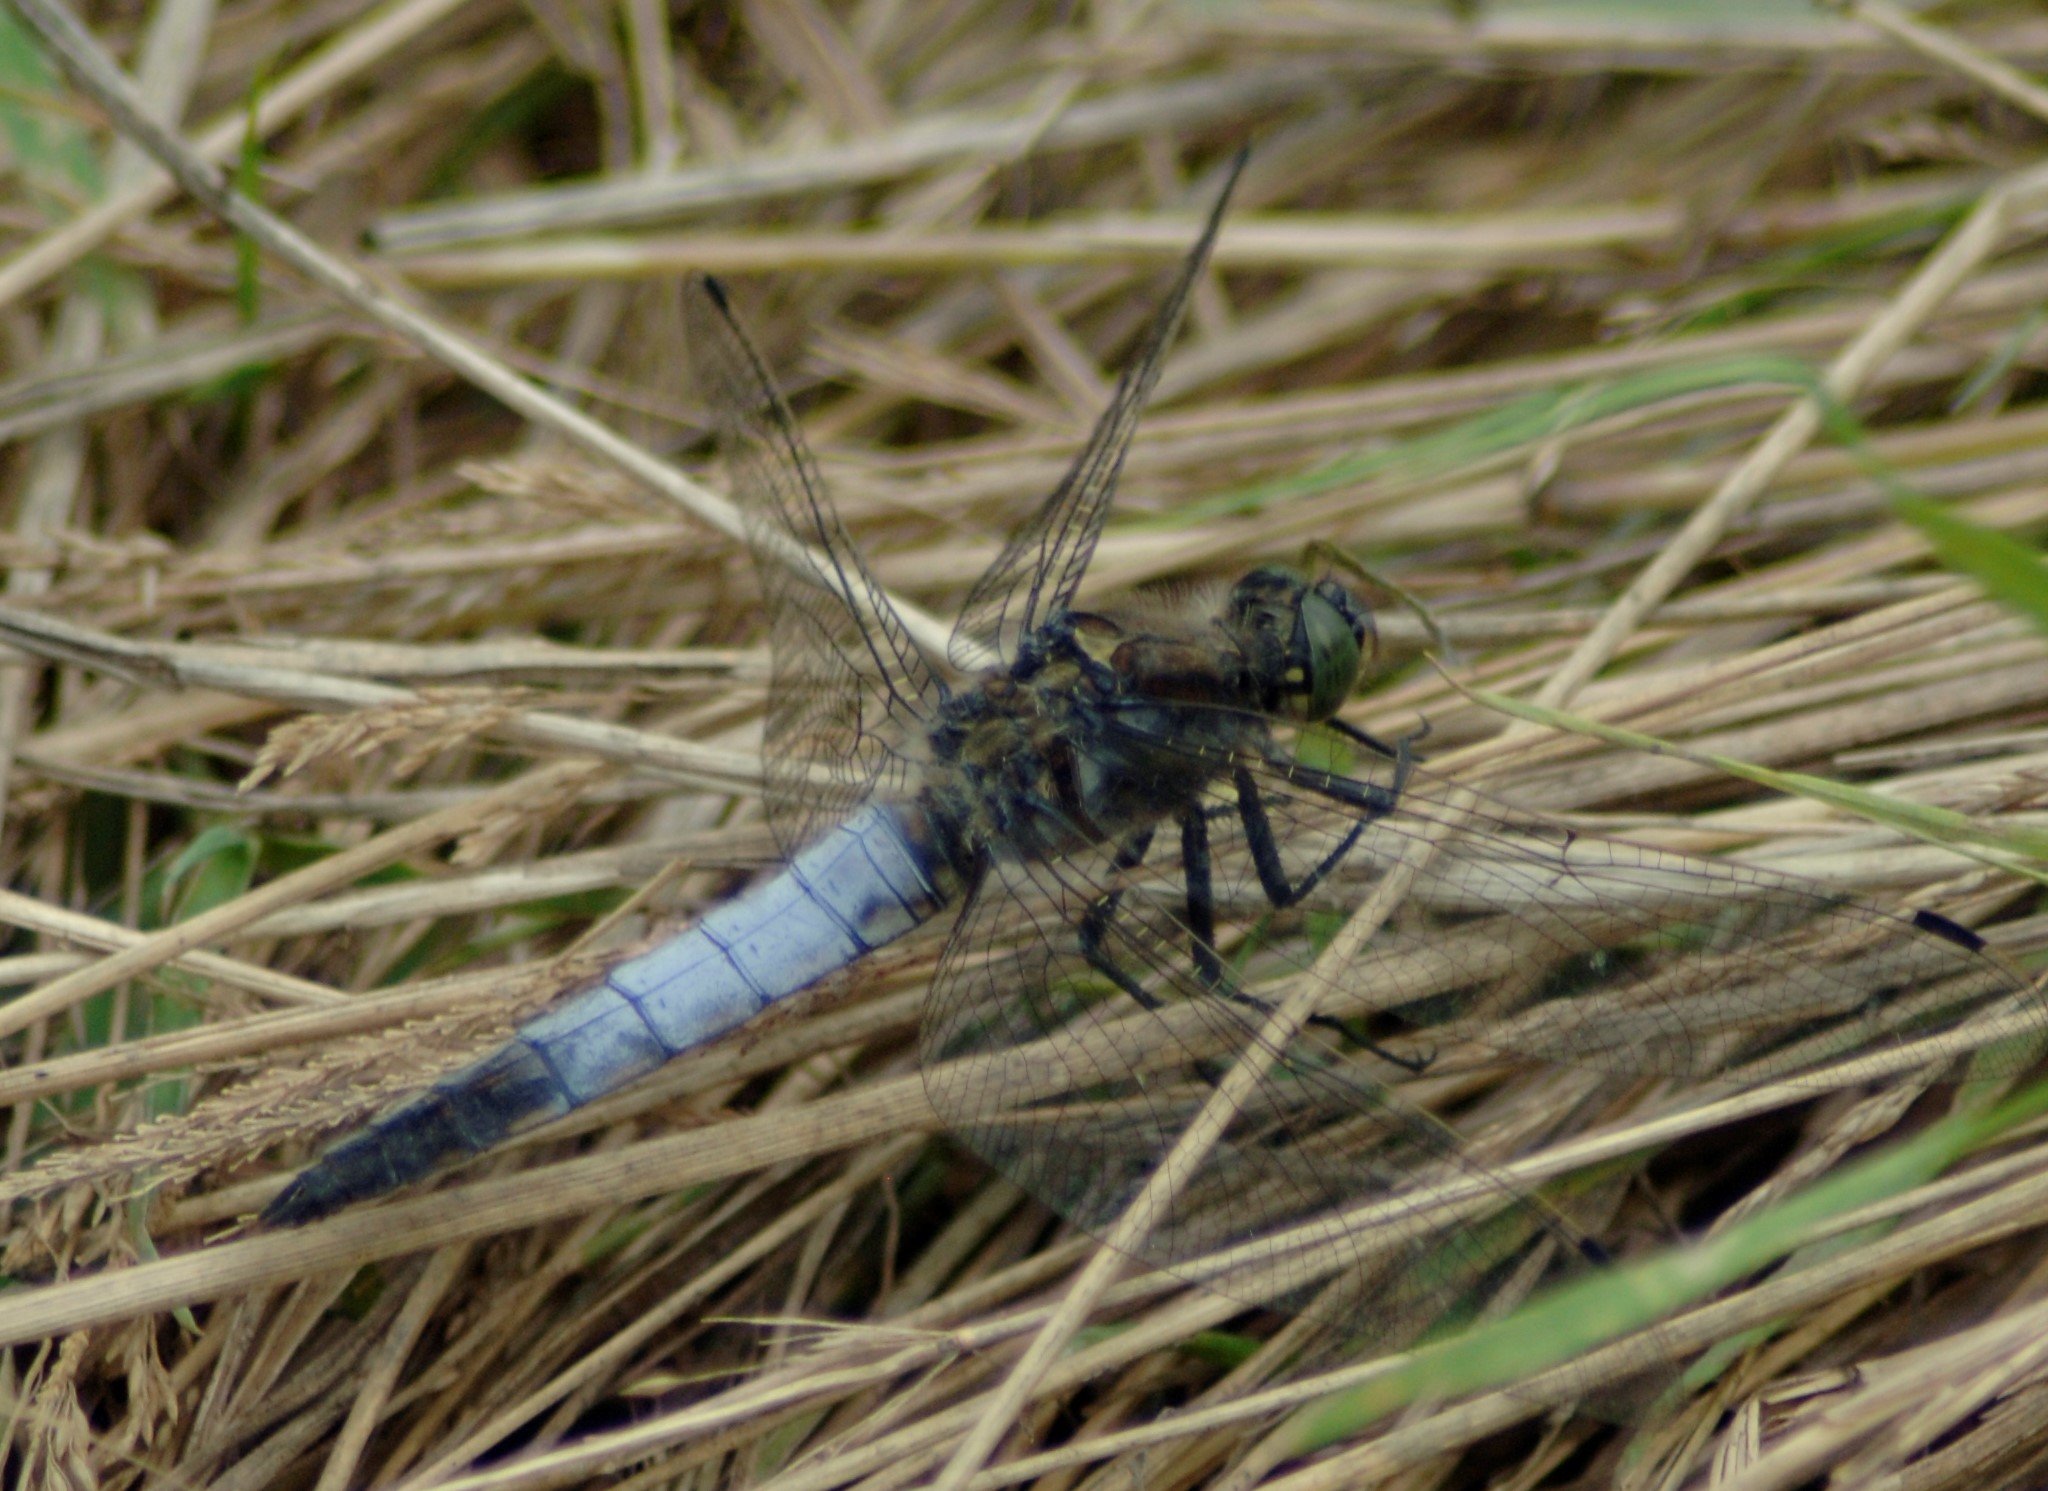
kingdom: Animalia
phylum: Arthropoda
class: Insecta
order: Odonata
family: Libellulidae
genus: Orthetrum
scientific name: Orthetrum cancellatum
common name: Black-tailed skimmer
